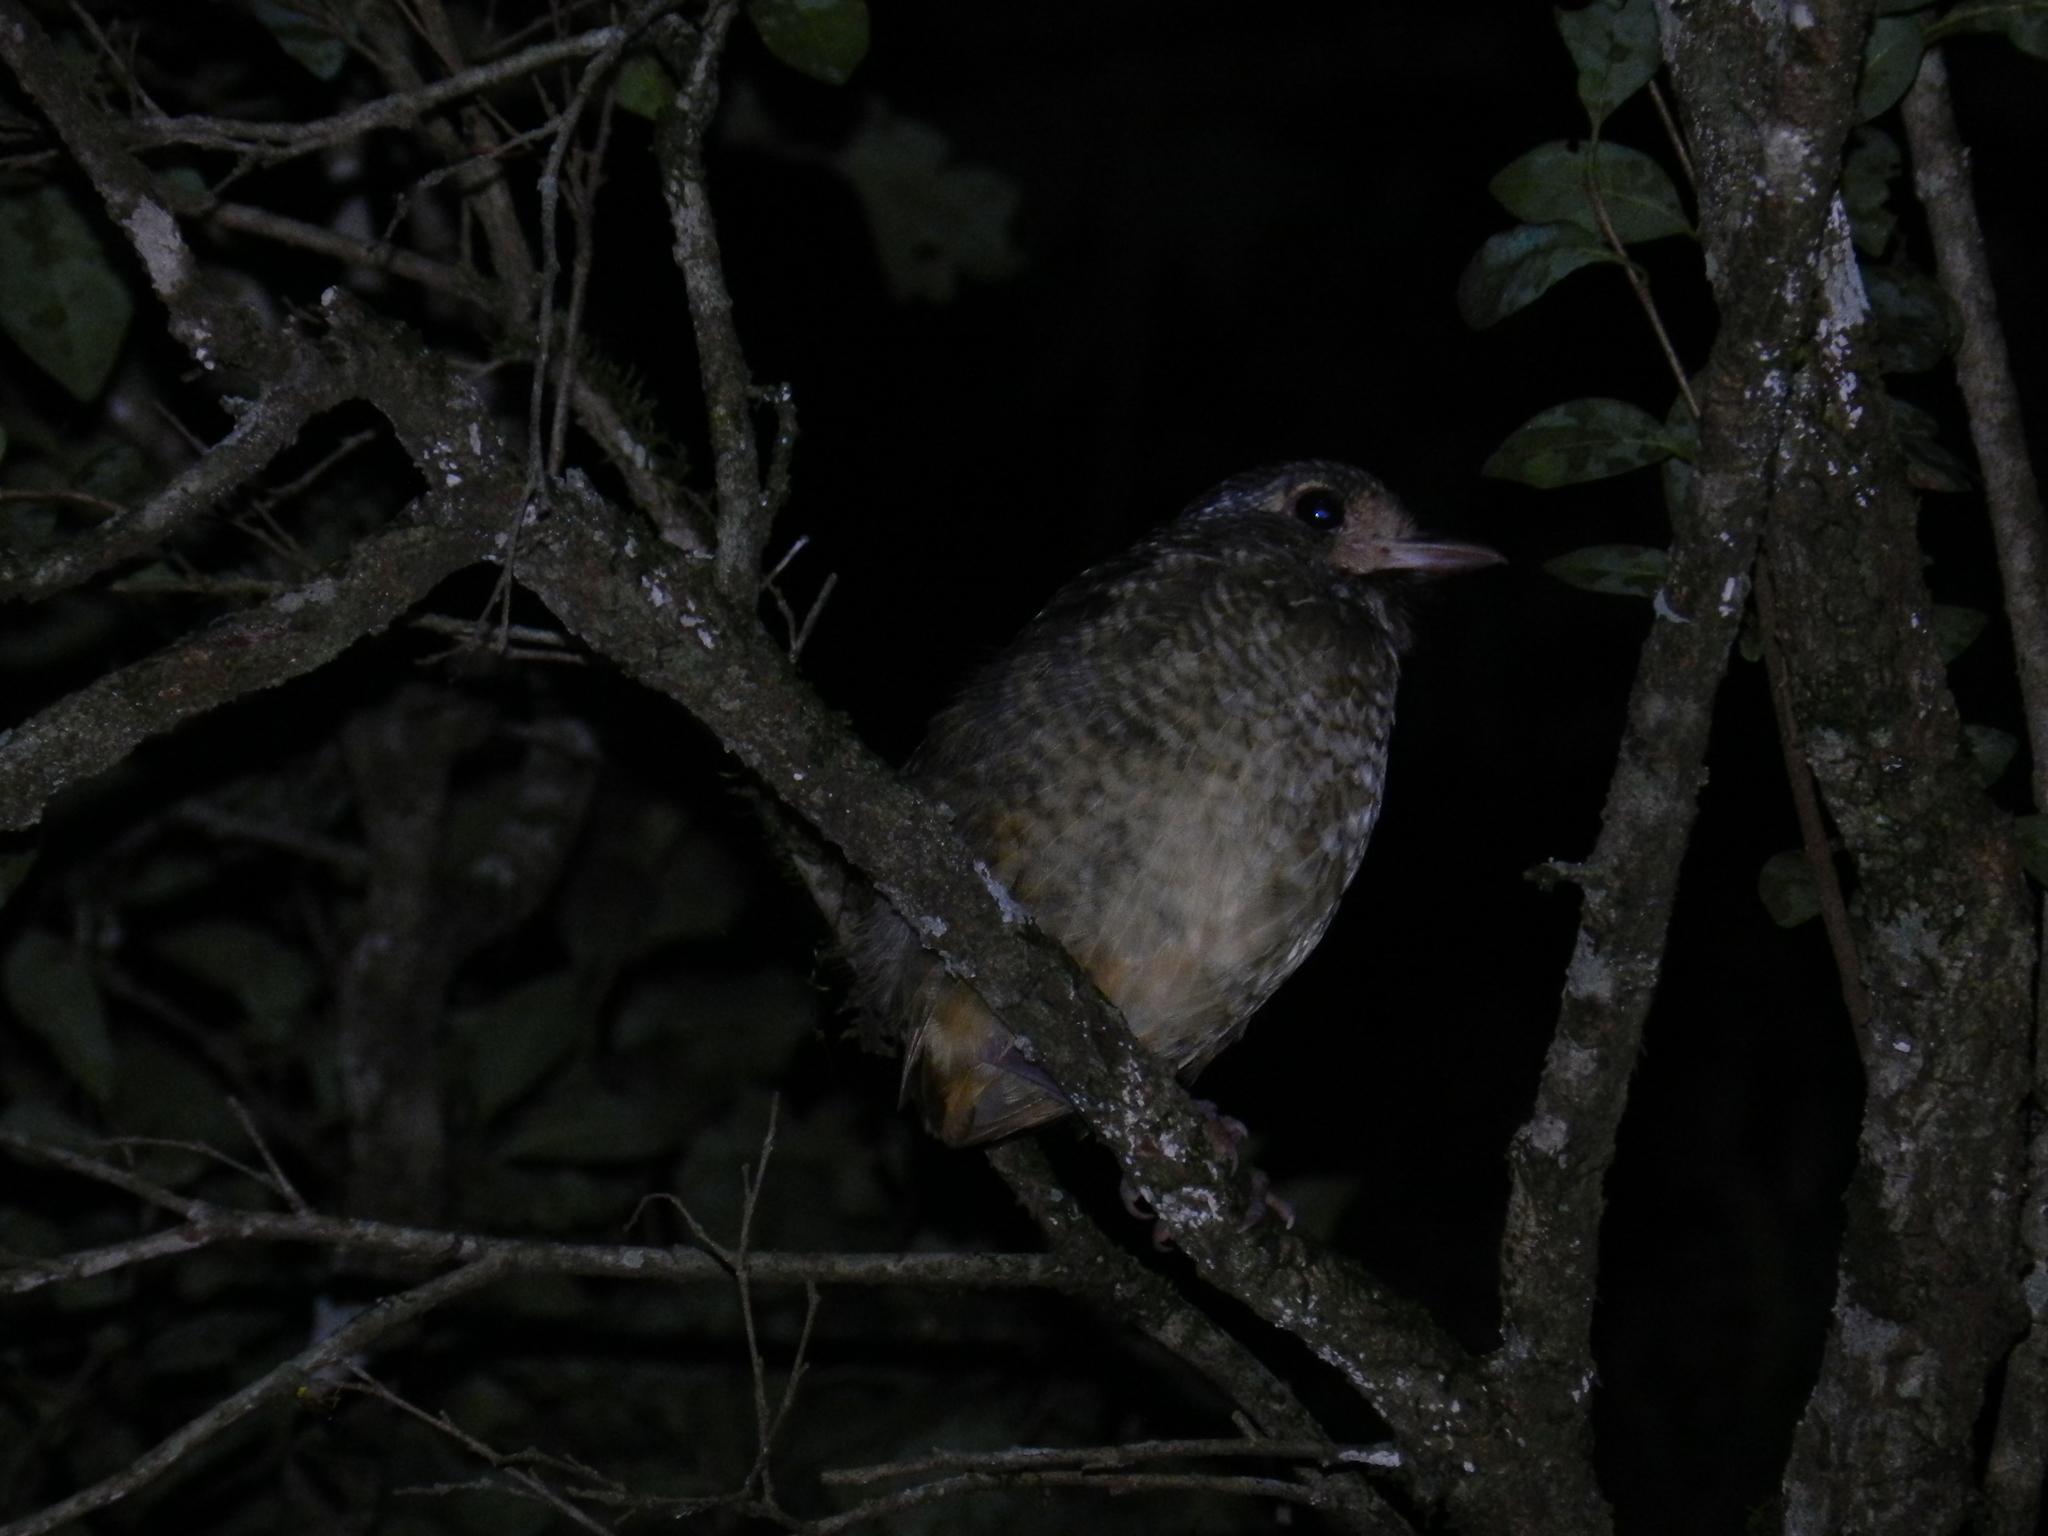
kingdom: Animalia
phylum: Chordata
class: Aves
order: Passeriformes
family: Grallariidae
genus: Grallaria
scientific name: Grallaria varia
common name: Variegated antpitta
